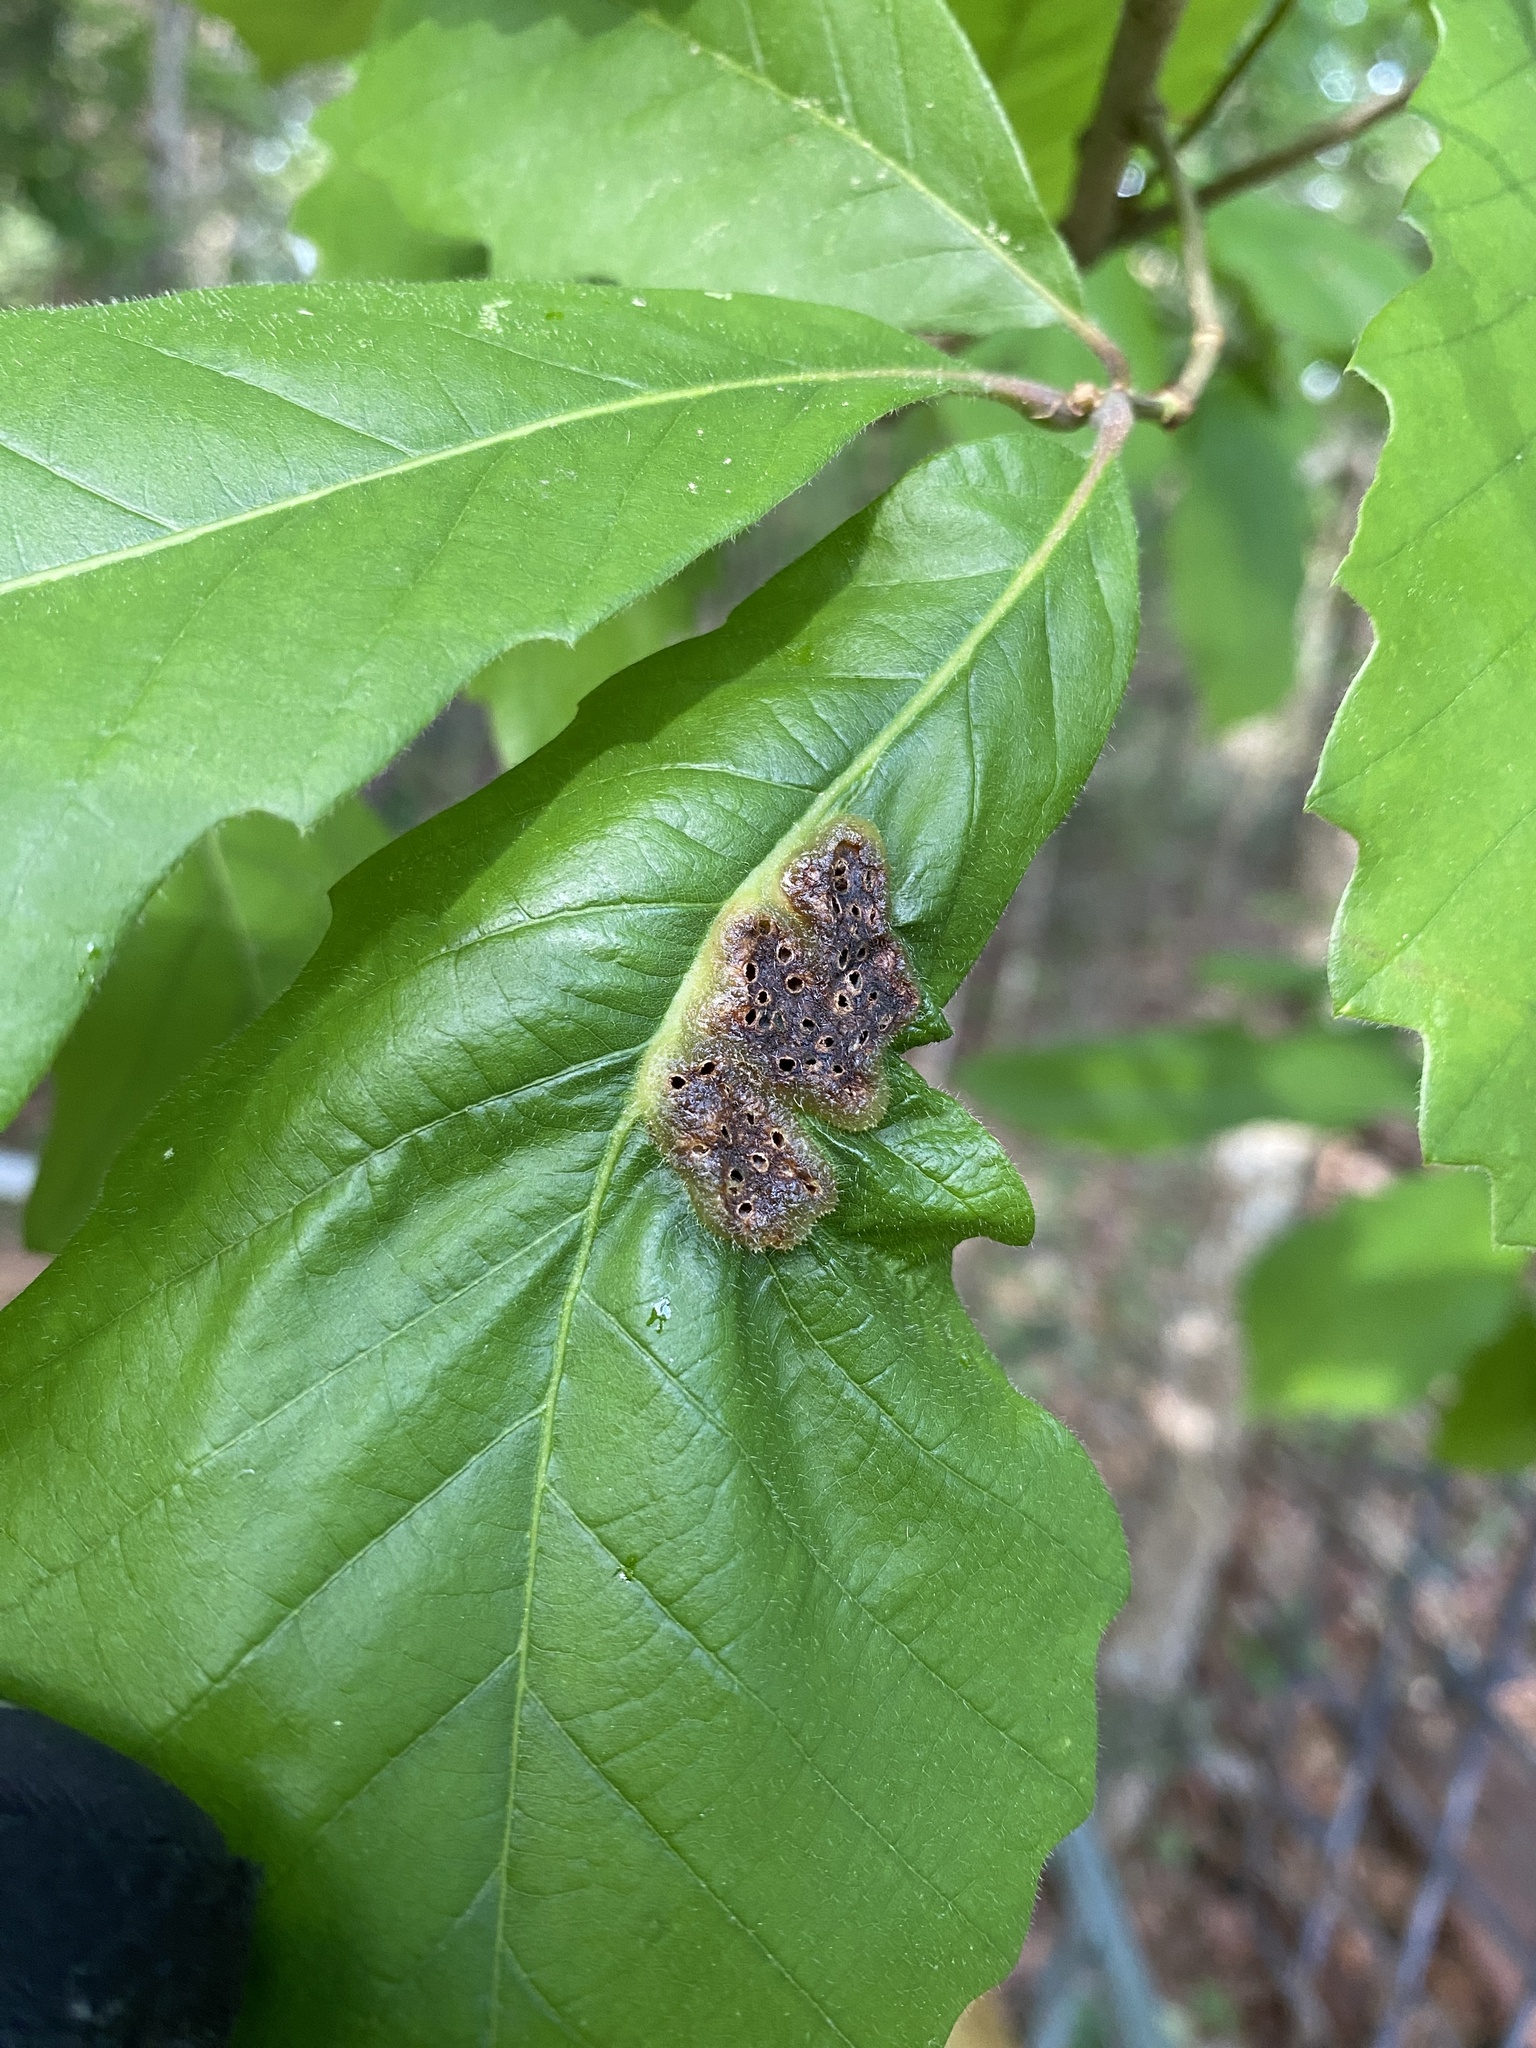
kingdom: Animalia
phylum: Arthropoda
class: Insecta
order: Hymenoptera
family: Cynipidae
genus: Neuroterus
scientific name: Neuroterus quercusirregularis
